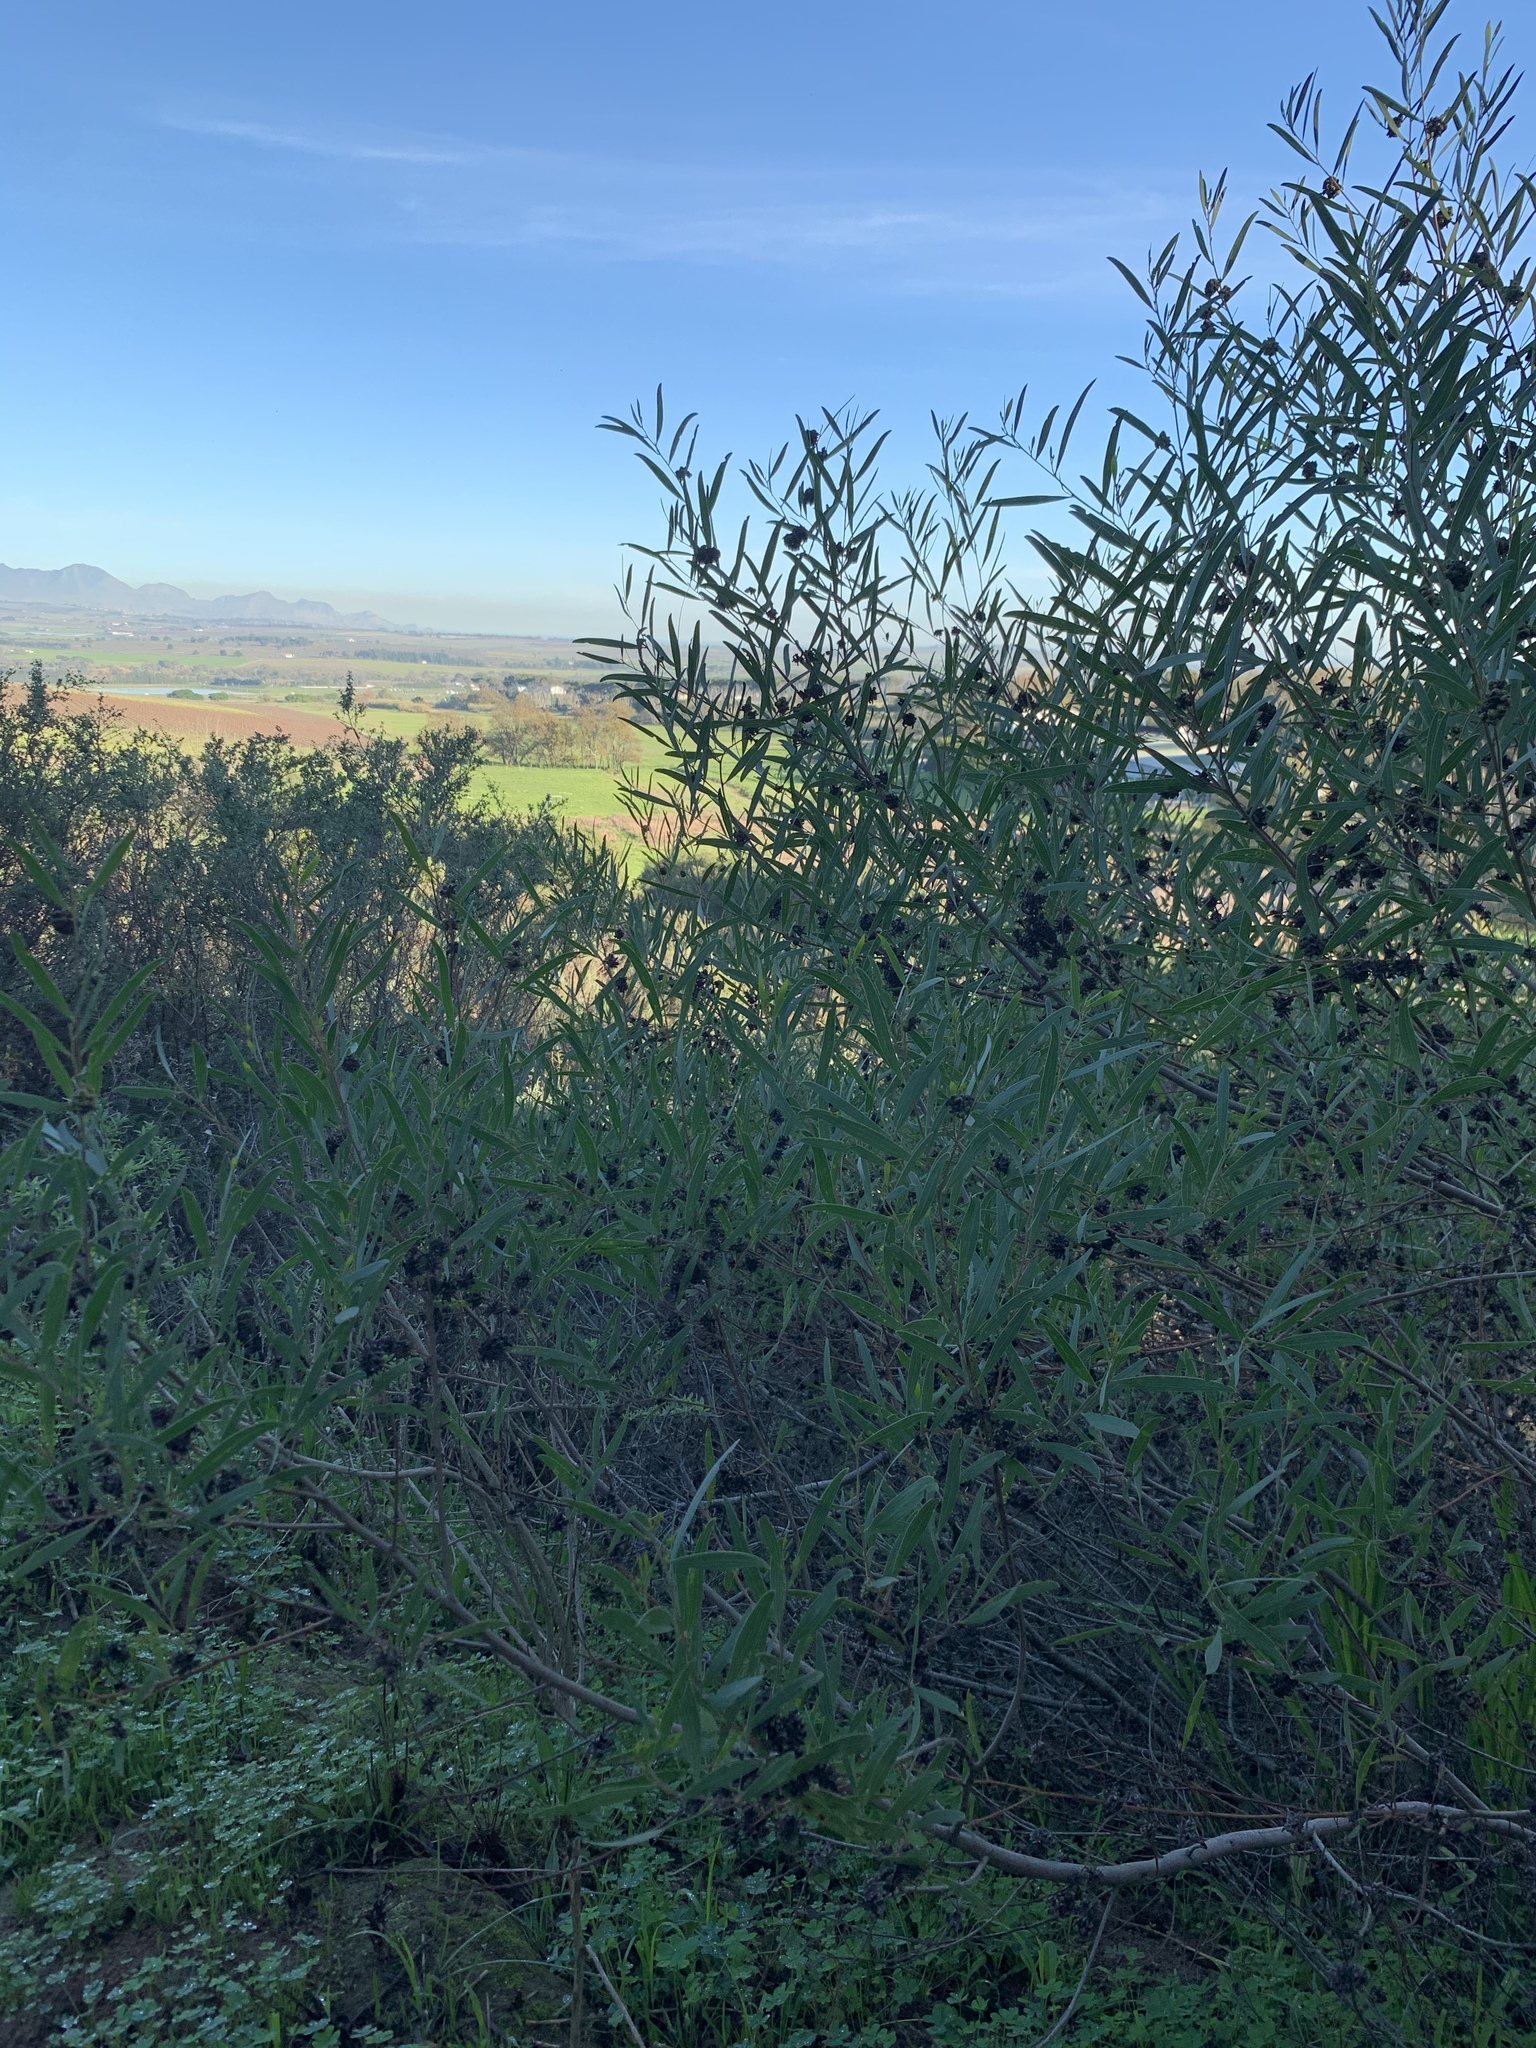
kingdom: Plantae
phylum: Tracheophyta
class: Magnoliopsida
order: Fabales
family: Fabaceae
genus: Acacia
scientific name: Acacia cyclops
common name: Coastal wattle
